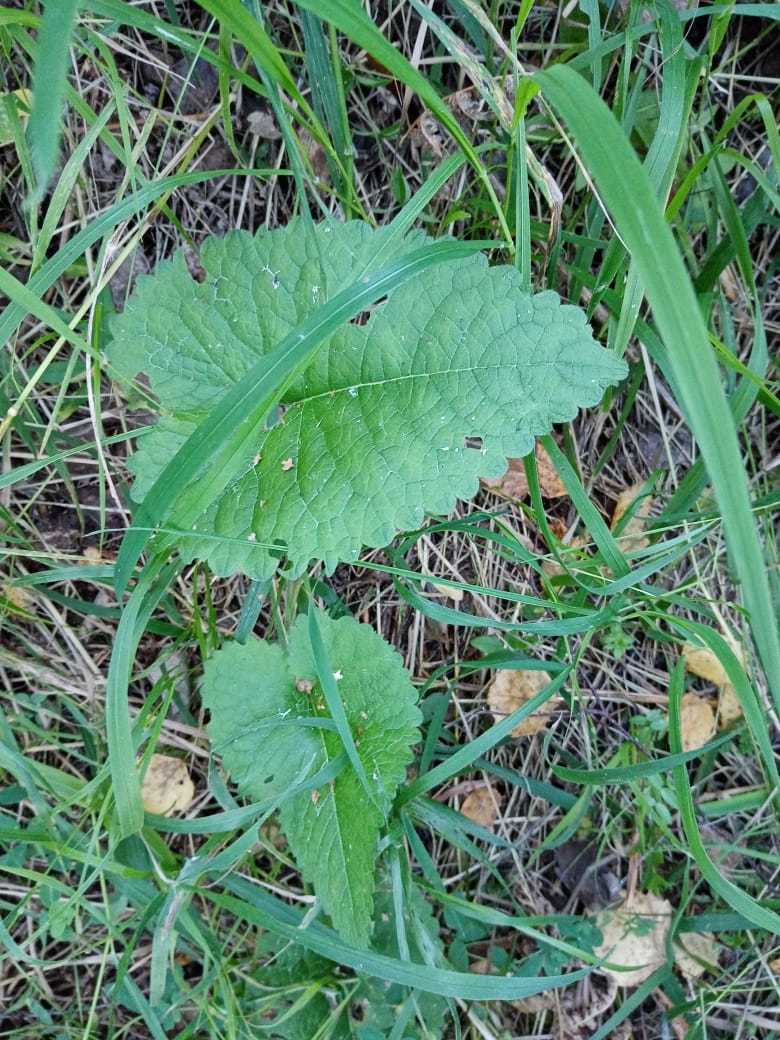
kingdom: Plantae
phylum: Tracheophyta
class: Magnoliopsida
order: Lamiales
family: Lamiaceae
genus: Phlomoides
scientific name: Phlomoides tuberosa
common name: Tuberous jerusalem sage
